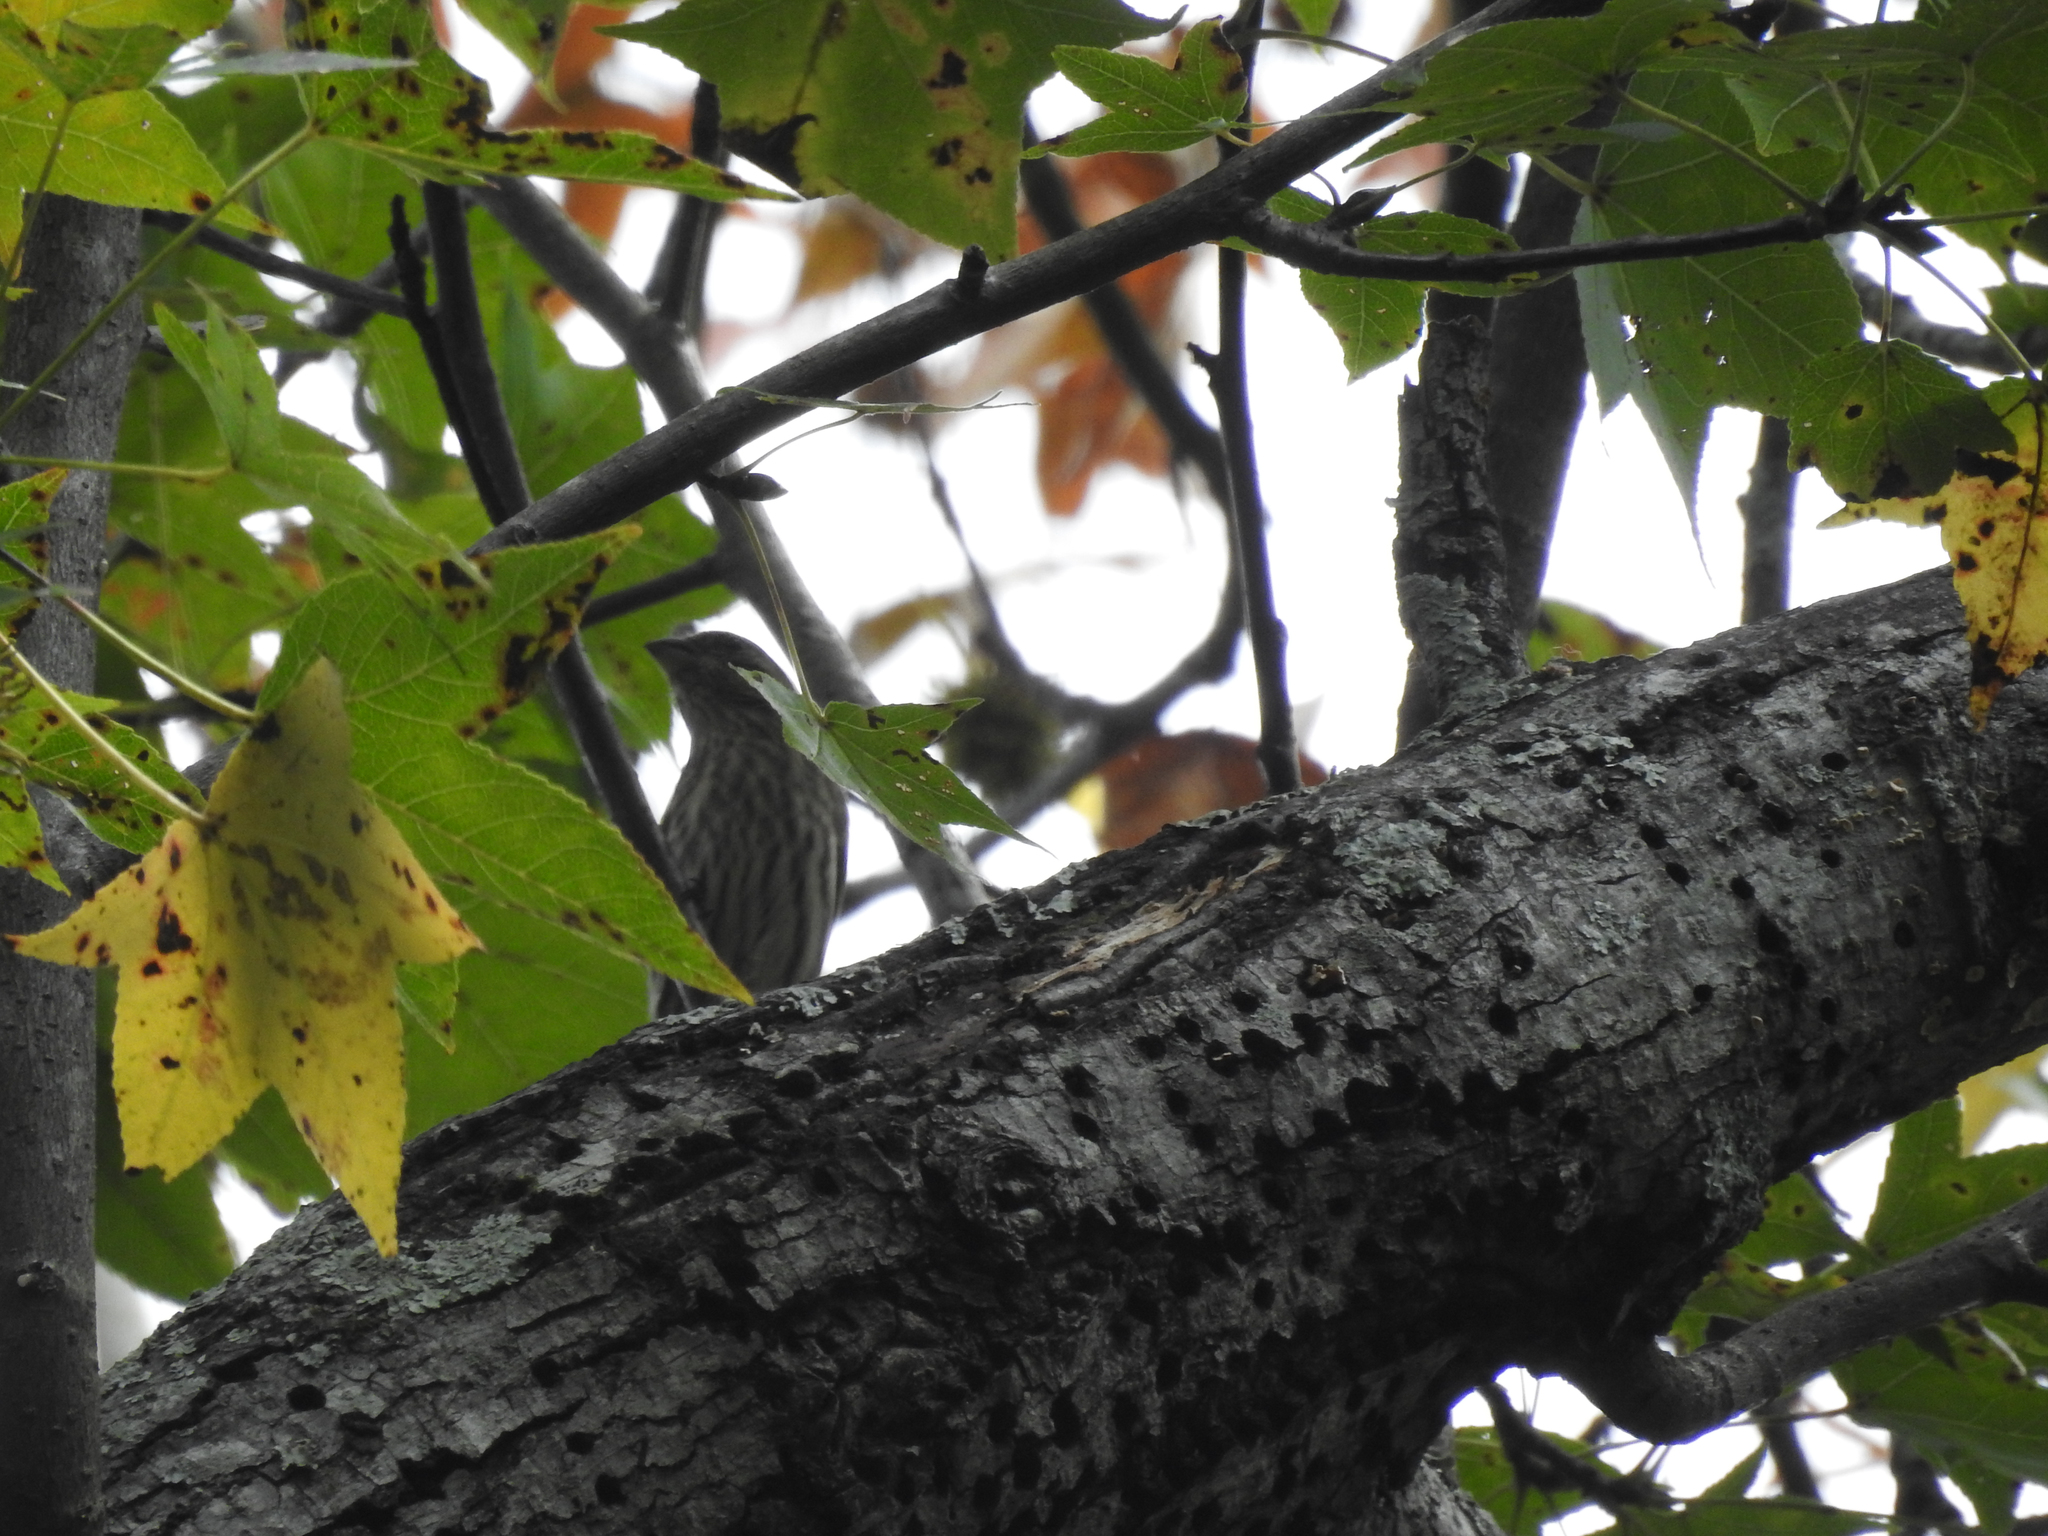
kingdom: Animalia
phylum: Chordata
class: Aves
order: Passeriformes
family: Fringillidae
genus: Haemorhous
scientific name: Haemorhous mexicanus
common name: House finch
